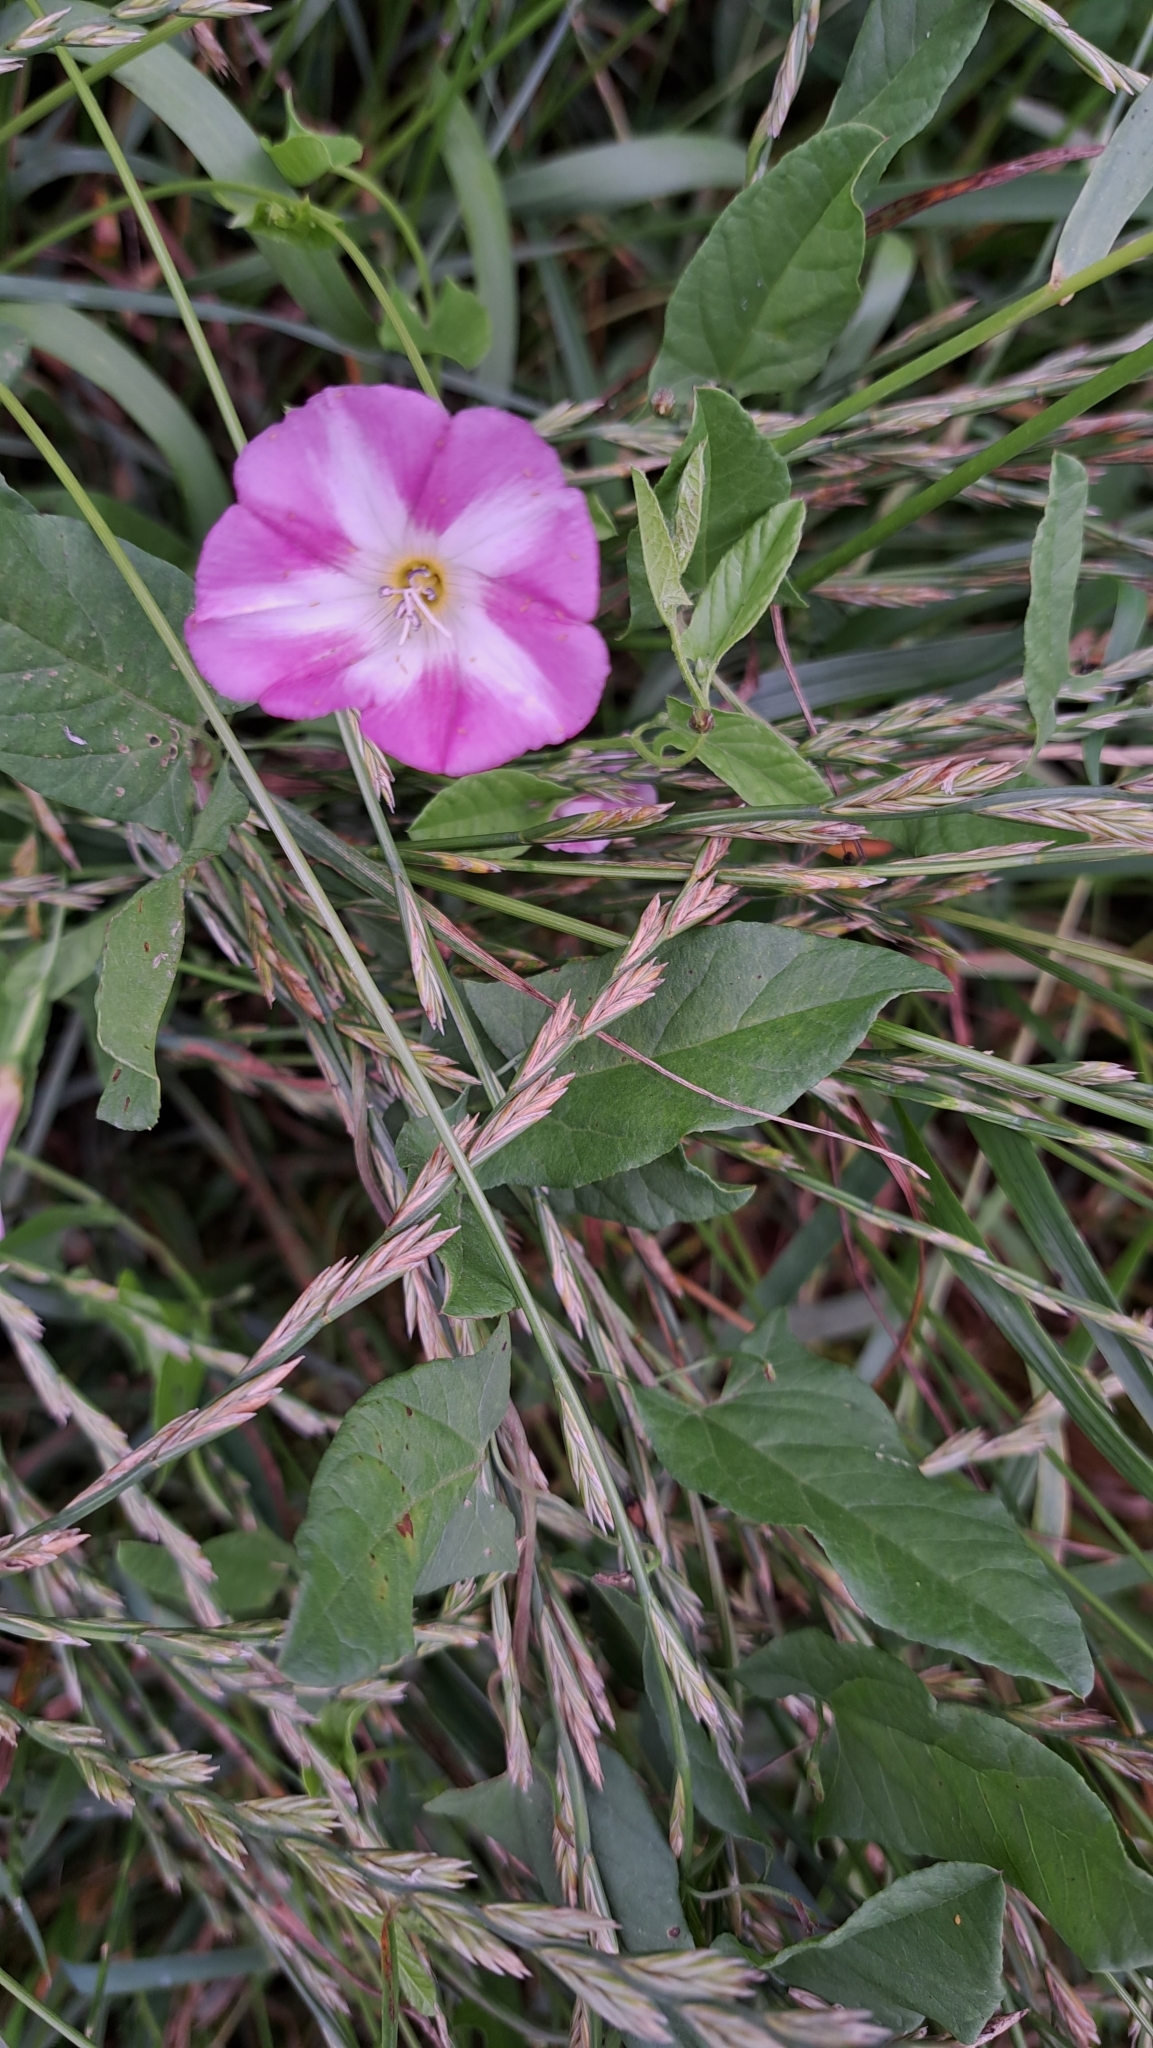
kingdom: Plantae
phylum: Tracheophyta
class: Magnoliopsida
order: Solanales
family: Convolvulaceae
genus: Convolvulus
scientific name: Convolvulus arvensis
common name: Field bindweed
